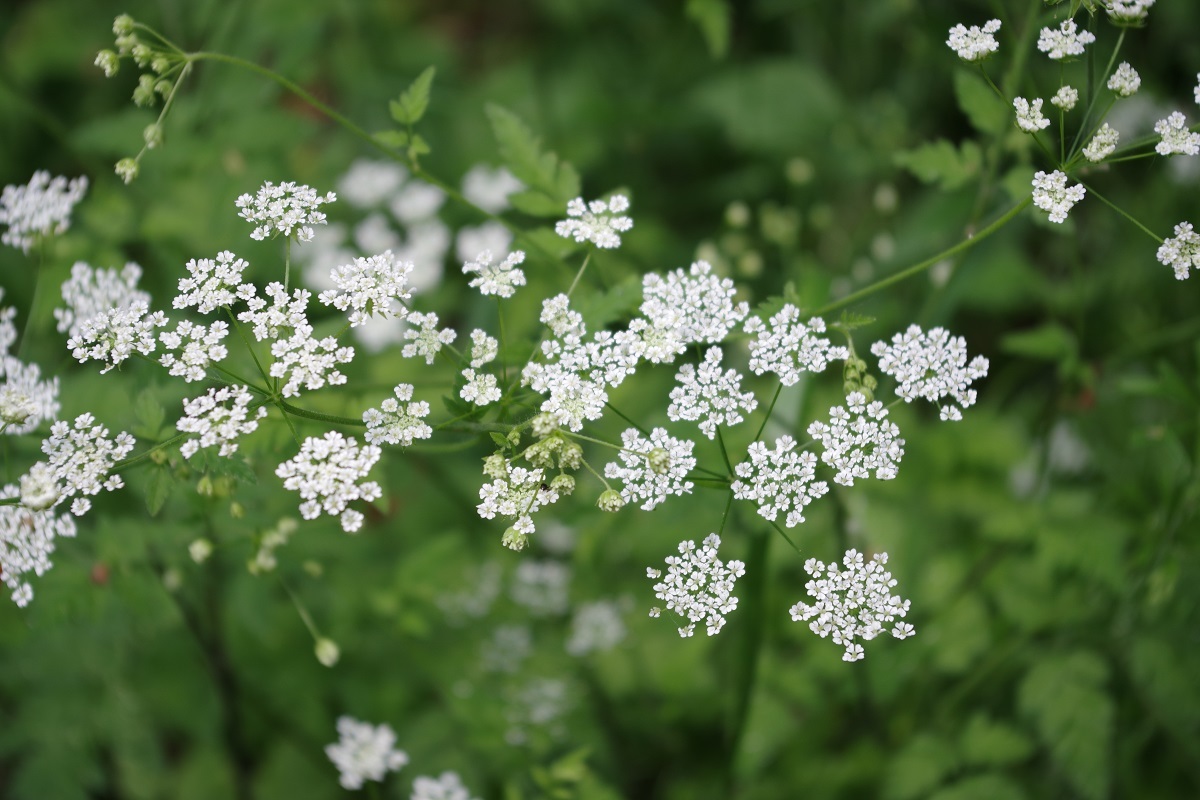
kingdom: Plantae
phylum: Tracheophyta
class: Magnoliopsida
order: Apiales
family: Apiaceae
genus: Chaerophyllum
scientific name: Chaerophyllum temulum
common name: Rough chervil
